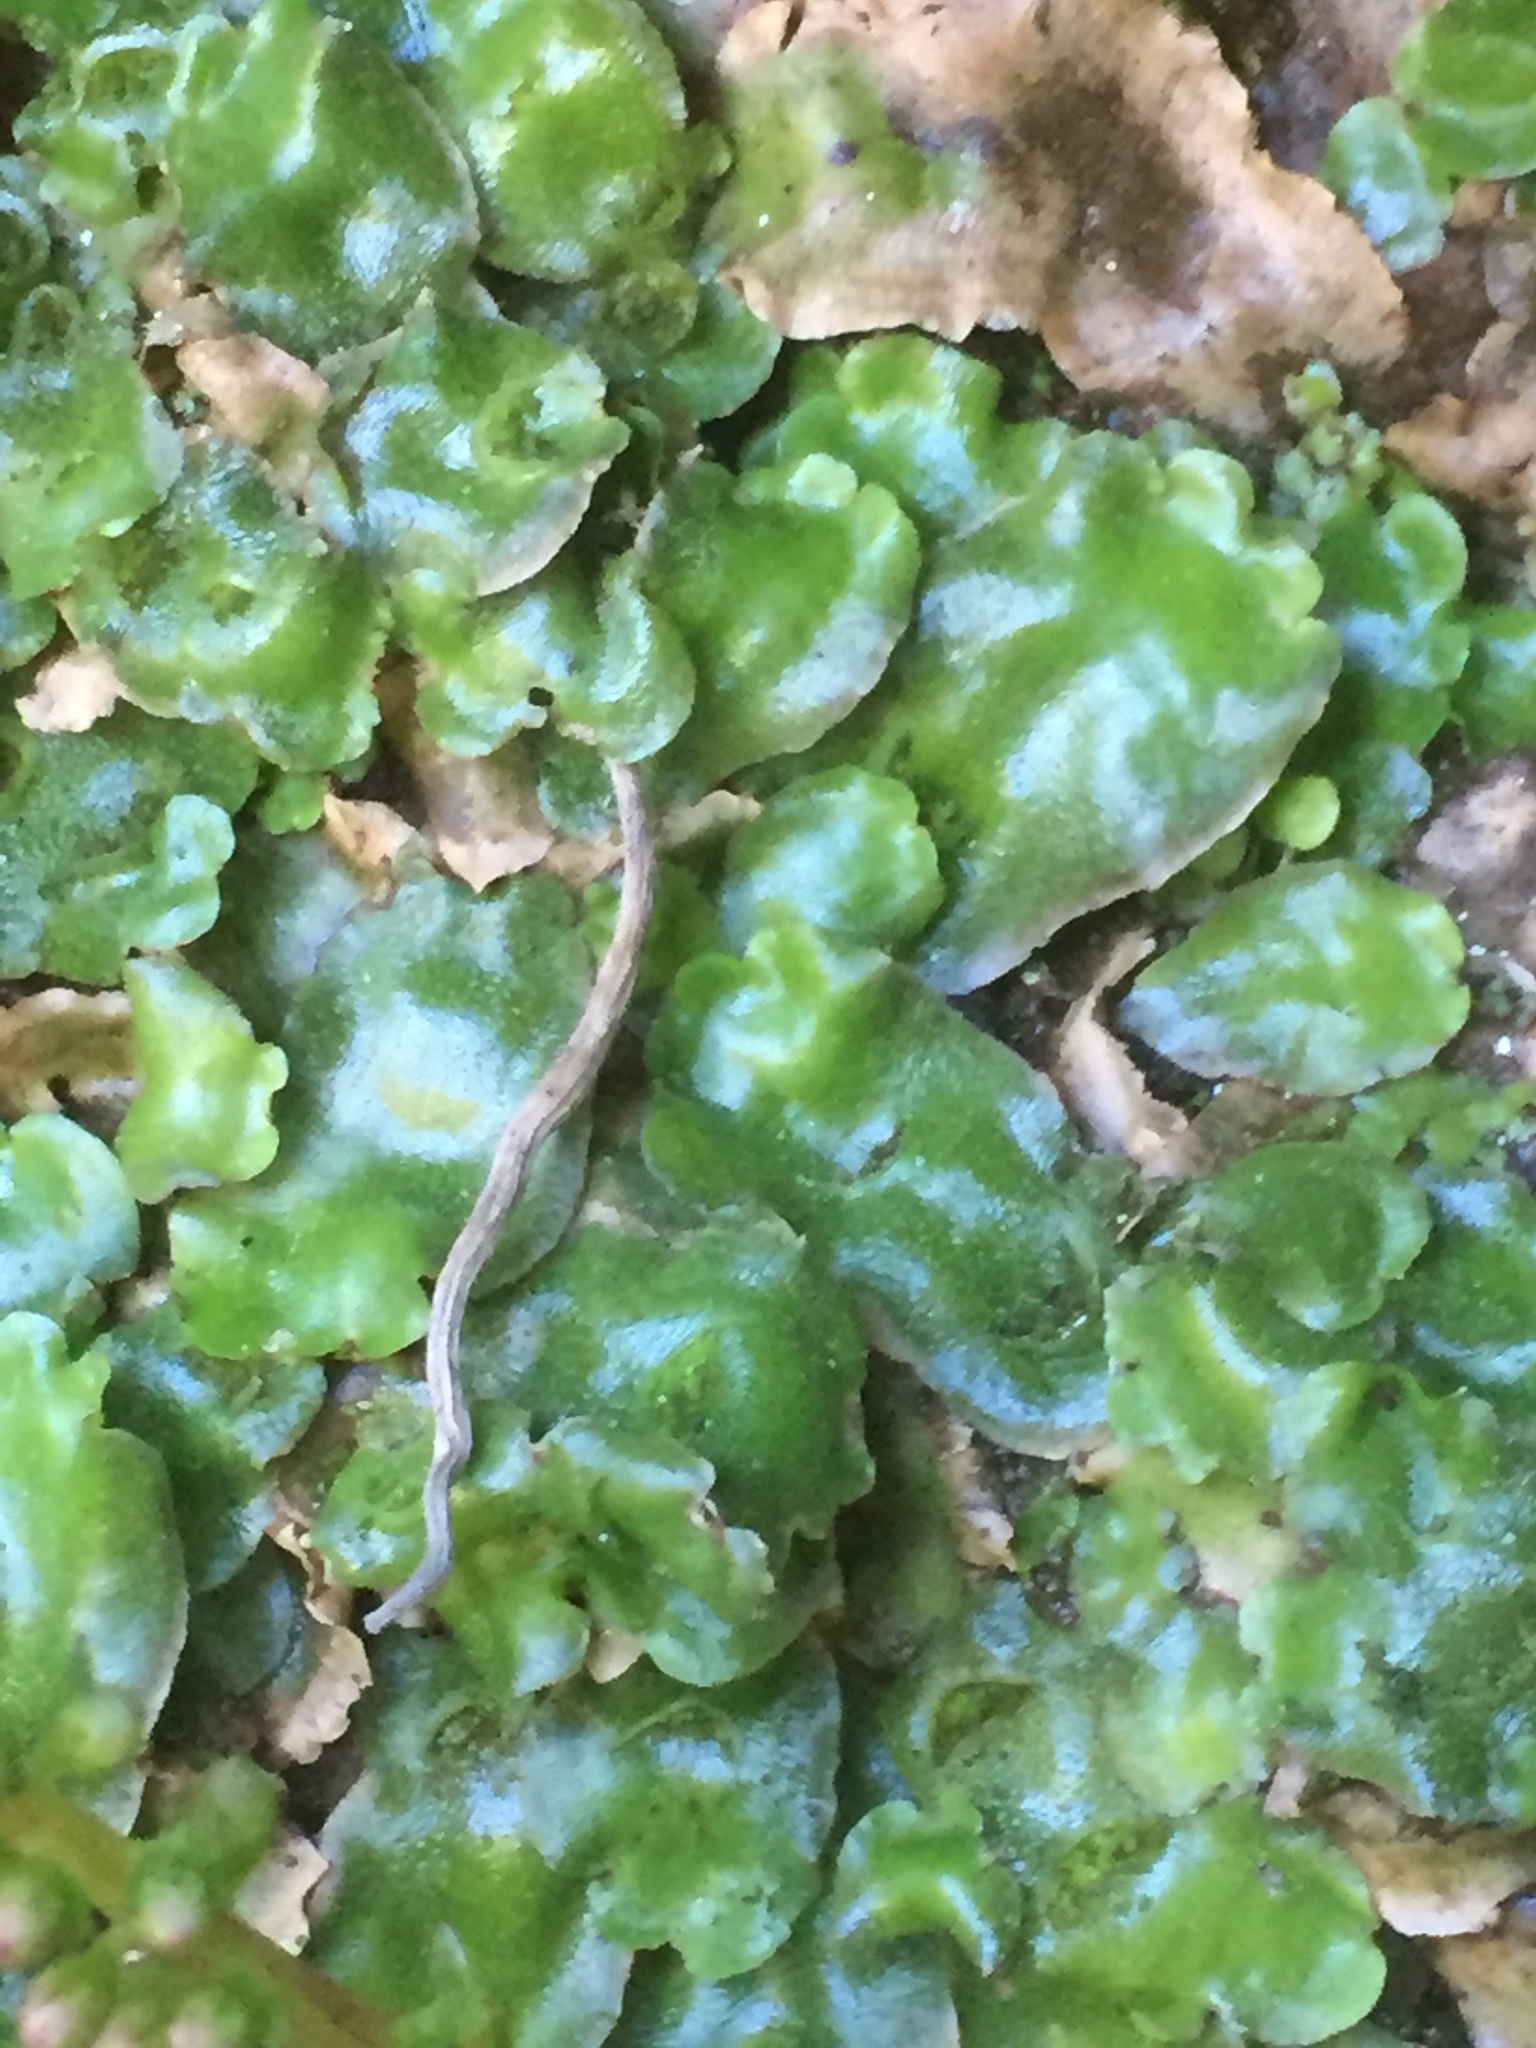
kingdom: Plantae
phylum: Marchantiophyta
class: Marchantiopsida
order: Lunulariales
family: Lunulariaceae
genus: Lunularia
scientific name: Lunularia cruciata
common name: Crescent-cup liverwort
